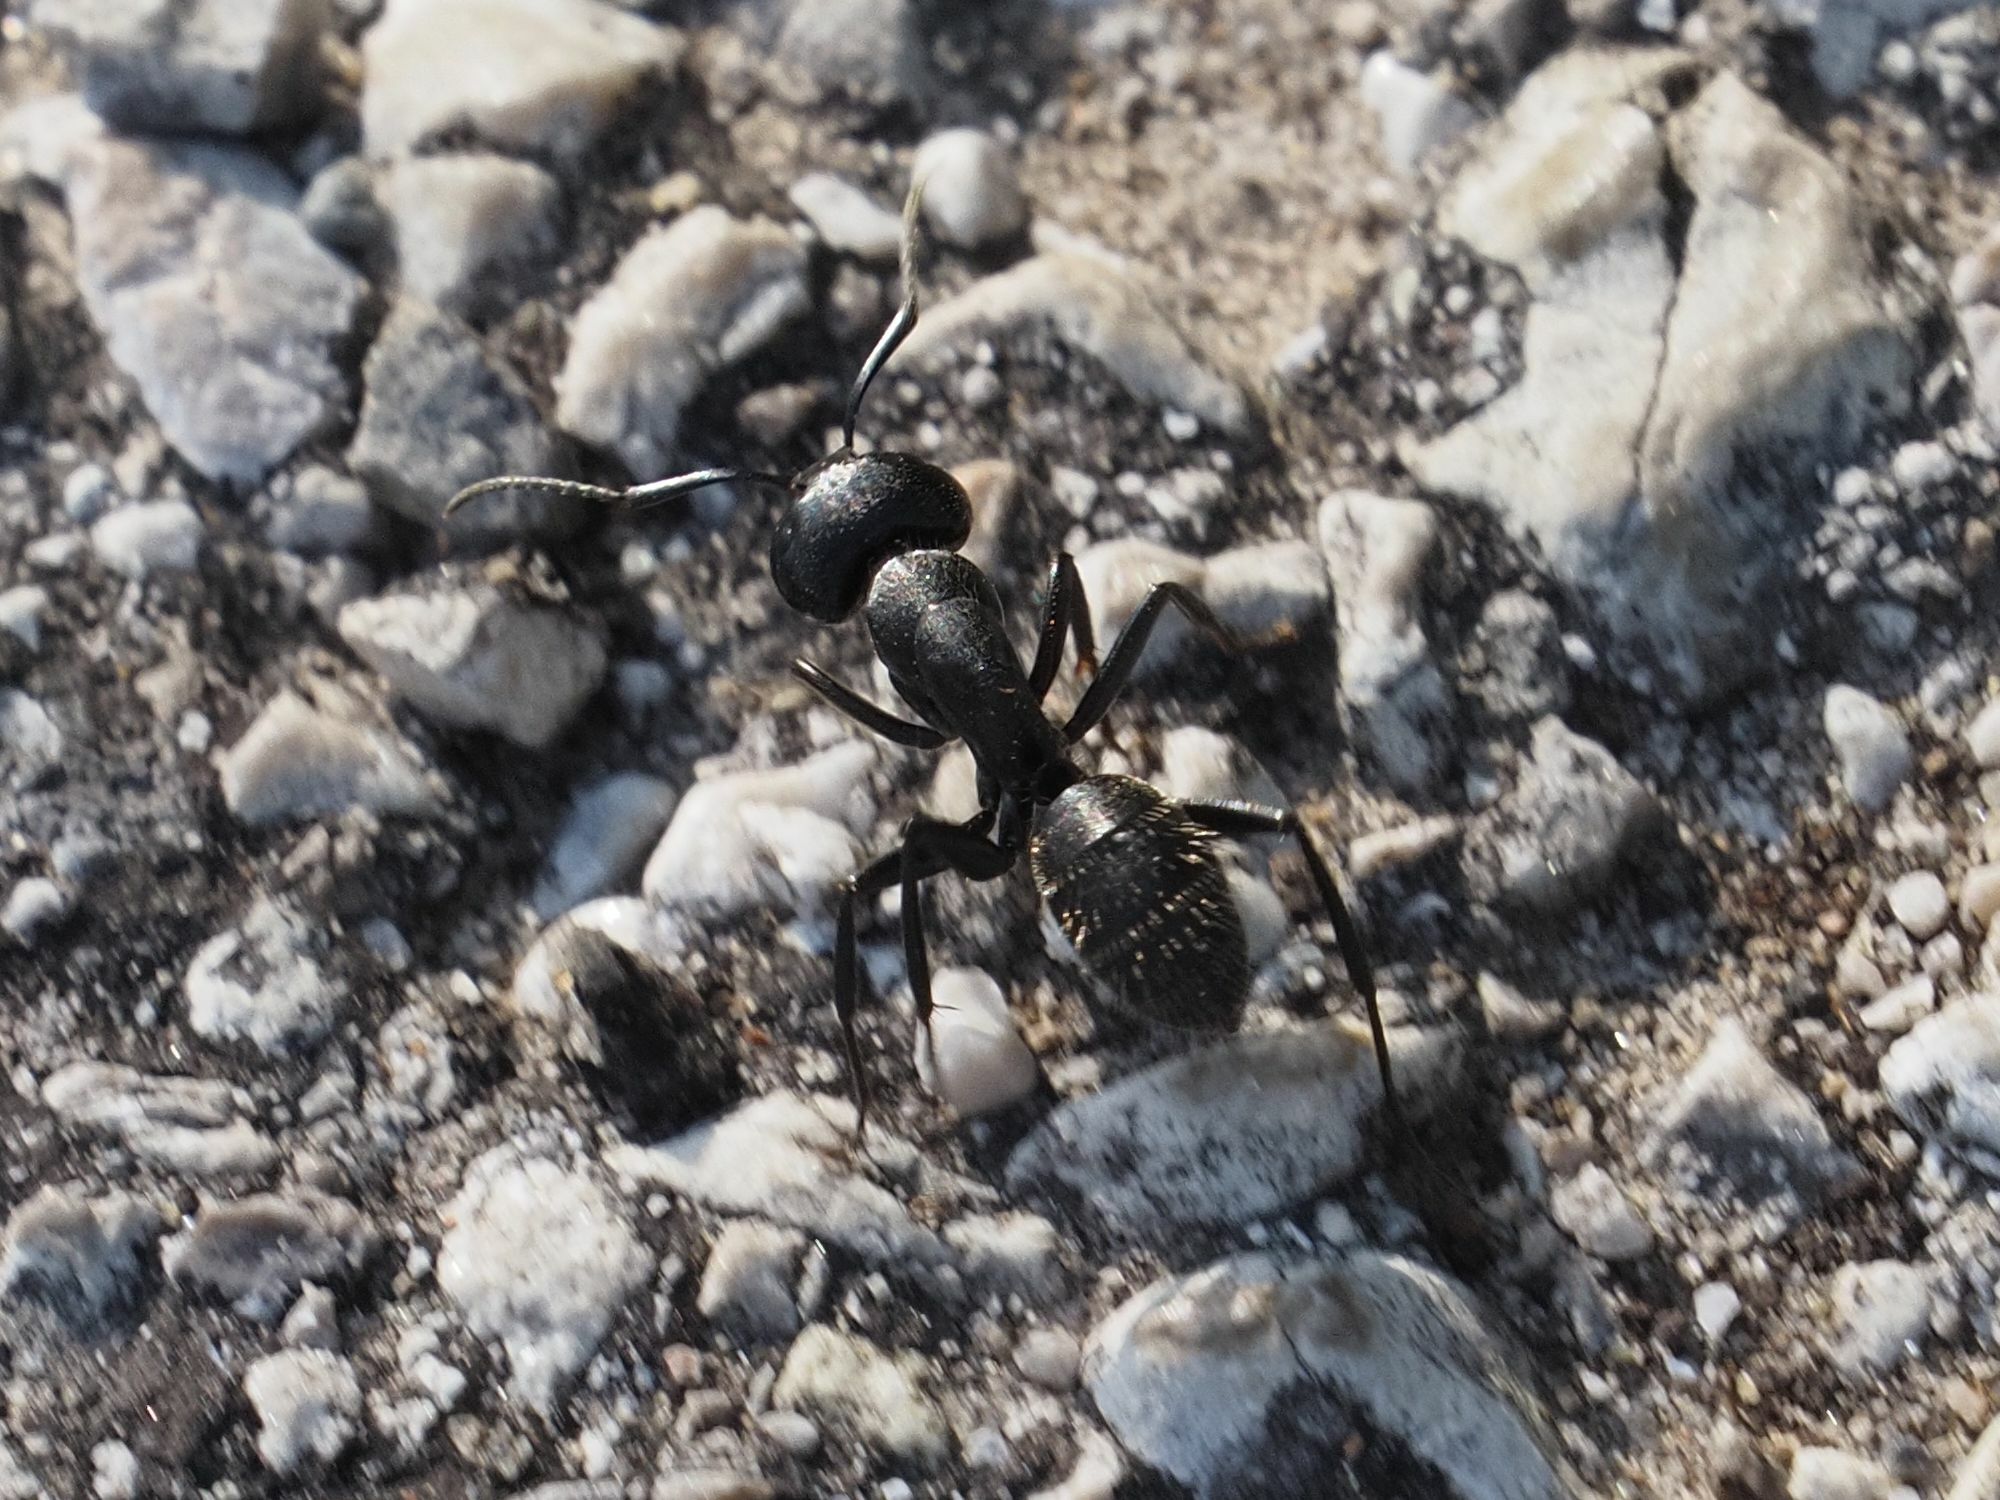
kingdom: Animalia
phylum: Arthropoda
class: Insecta
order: Hymenoptera
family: Formicidae
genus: Camponotus
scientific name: Camponotus vagus
